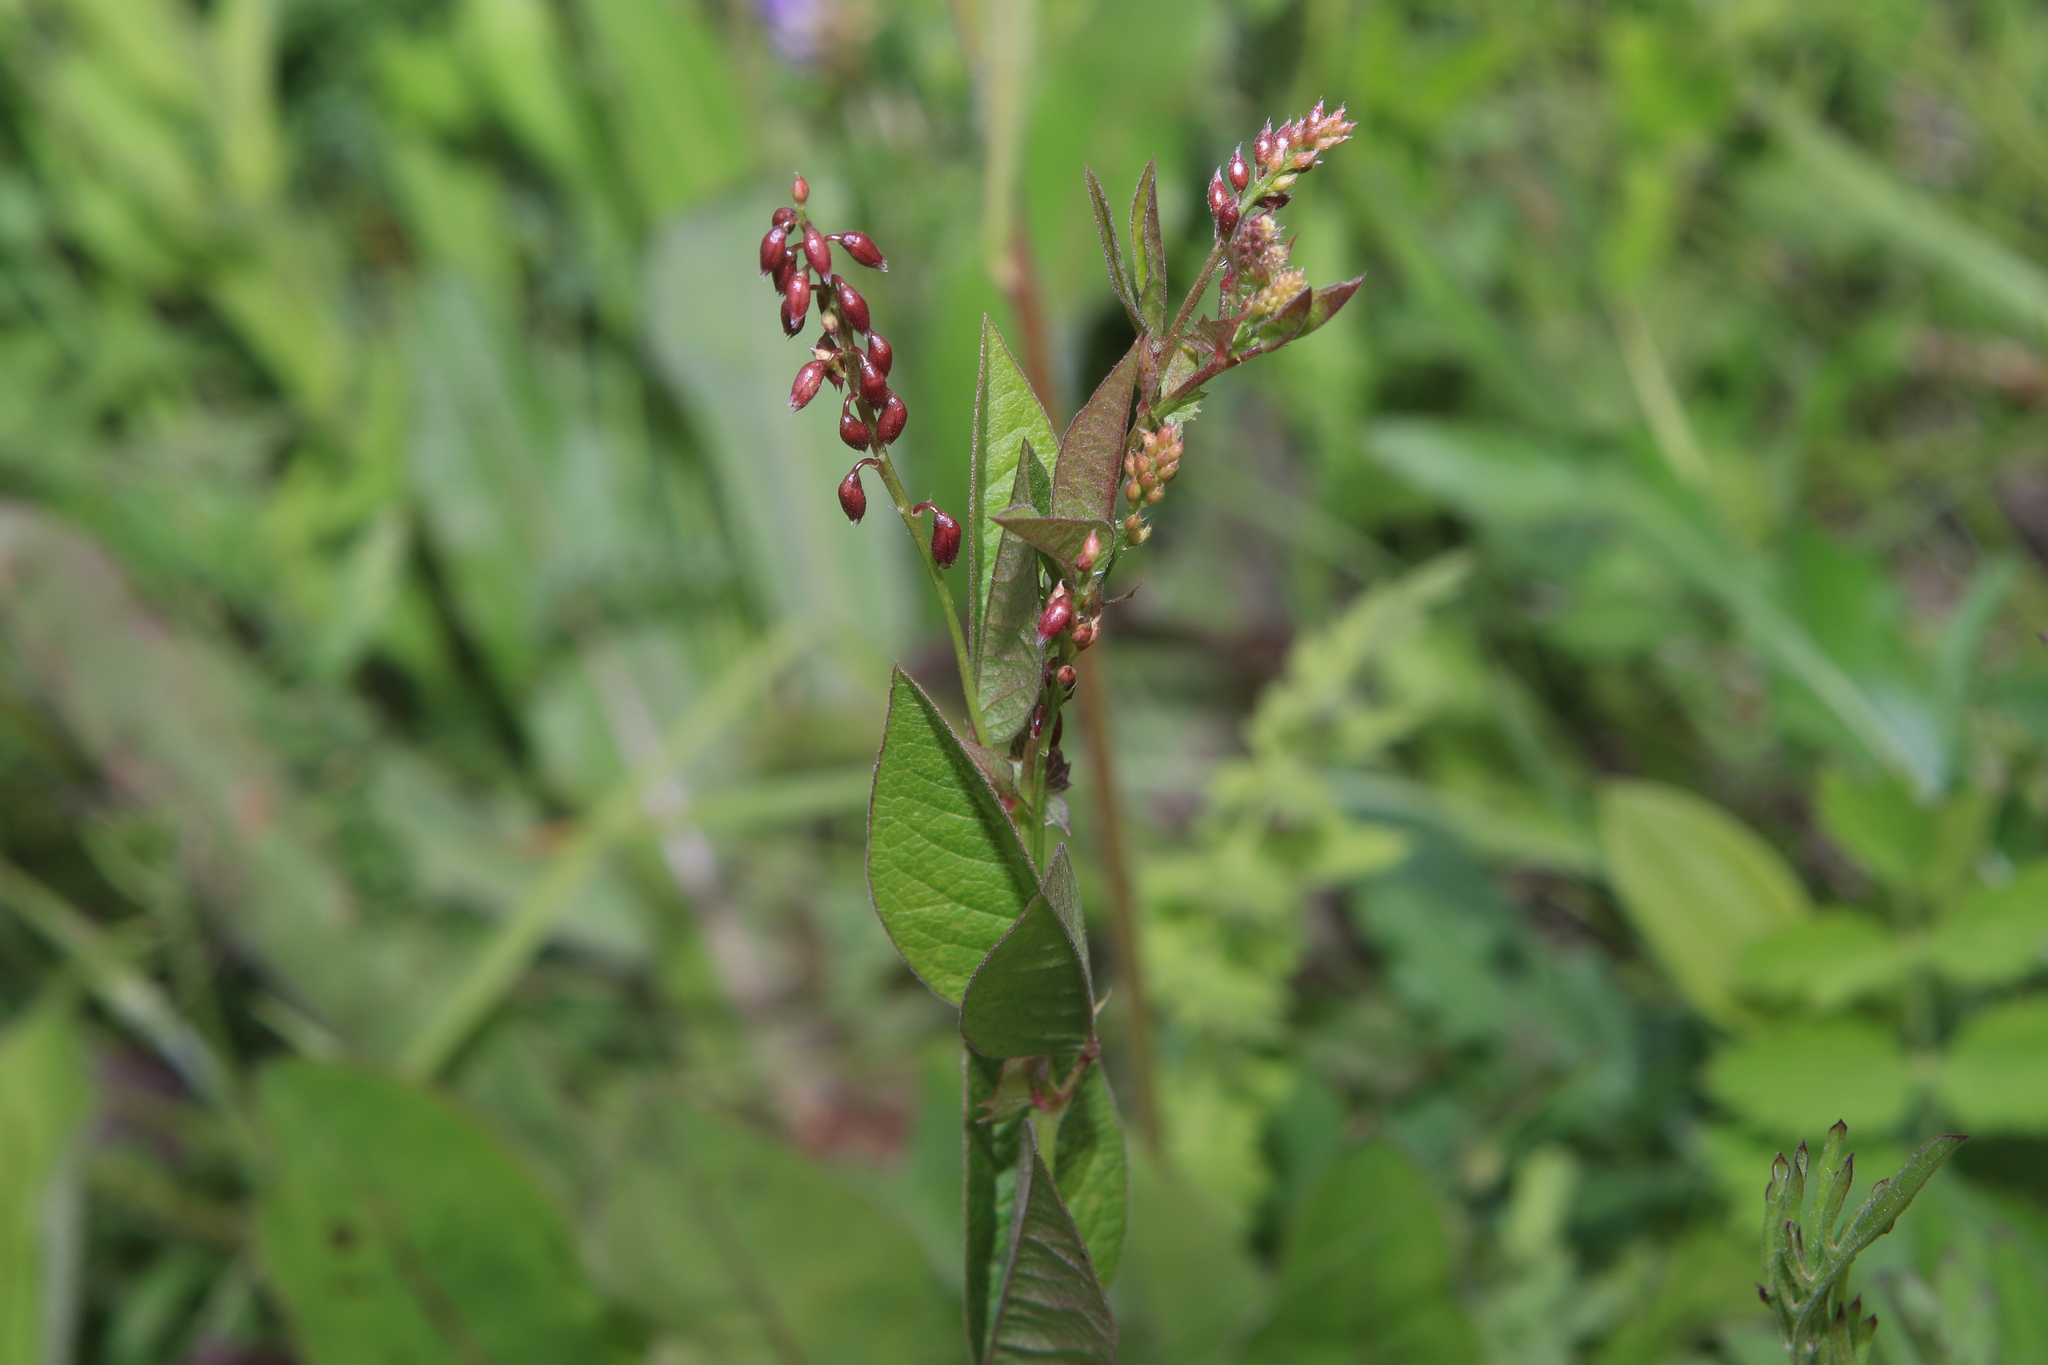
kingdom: Plantae
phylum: Tracheophyta
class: Magnoliopsida
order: Fabales
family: Fabaceae
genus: Vicia
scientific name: Vicia unijuga
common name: Two-leaf vetch
